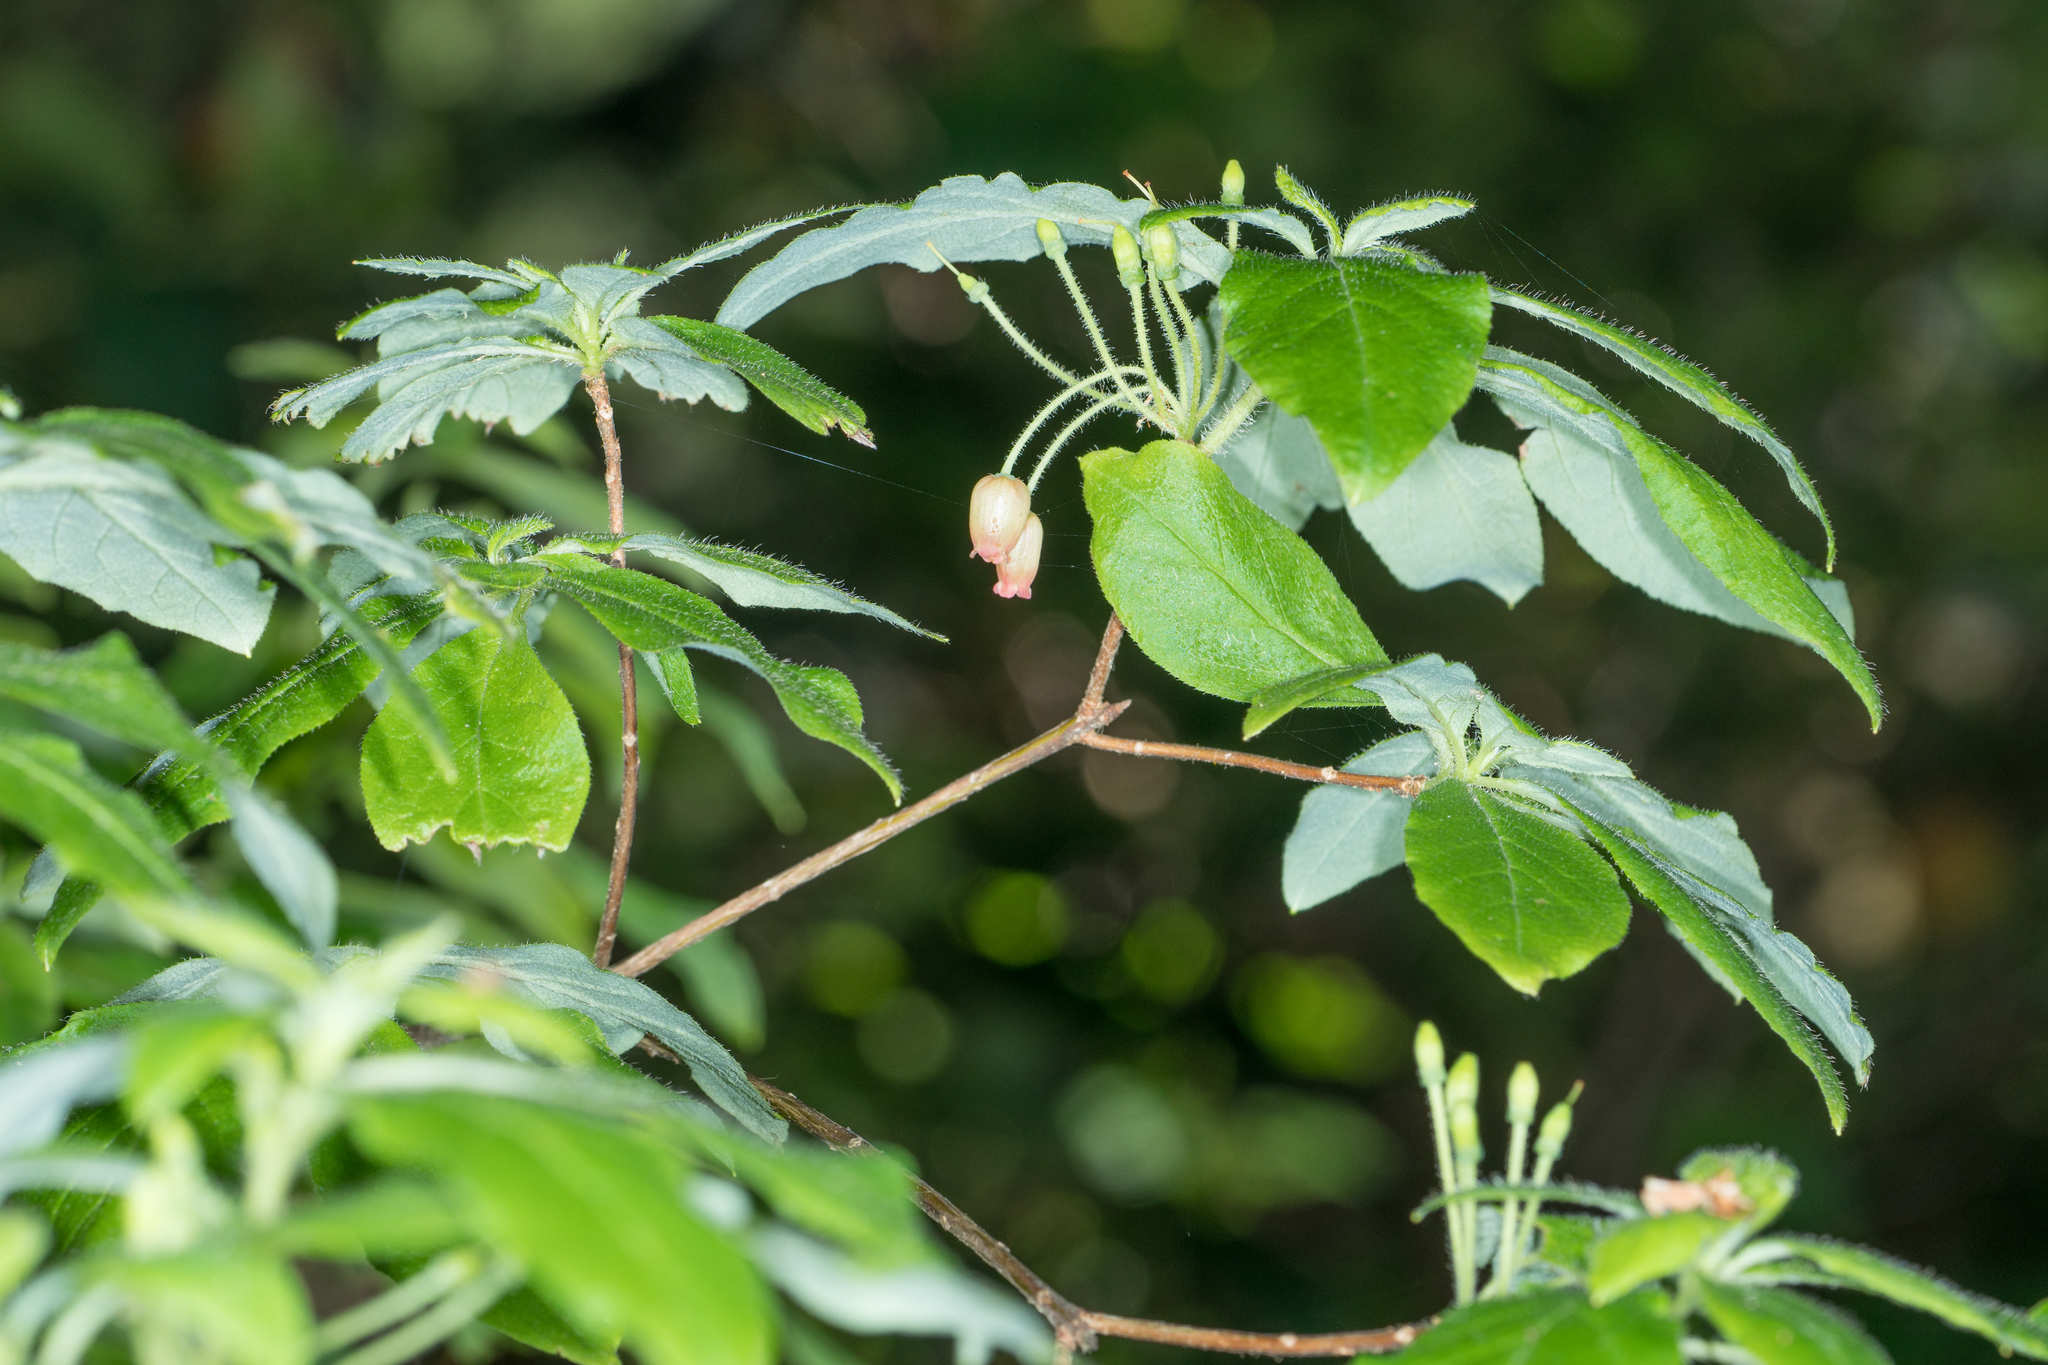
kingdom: Plantae
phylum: Tracheophyta
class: Magnoliopsida
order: Ericales
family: Ericaceae
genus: Rhododendron
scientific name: Rhododendron menziesii
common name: Pacific menziesia
